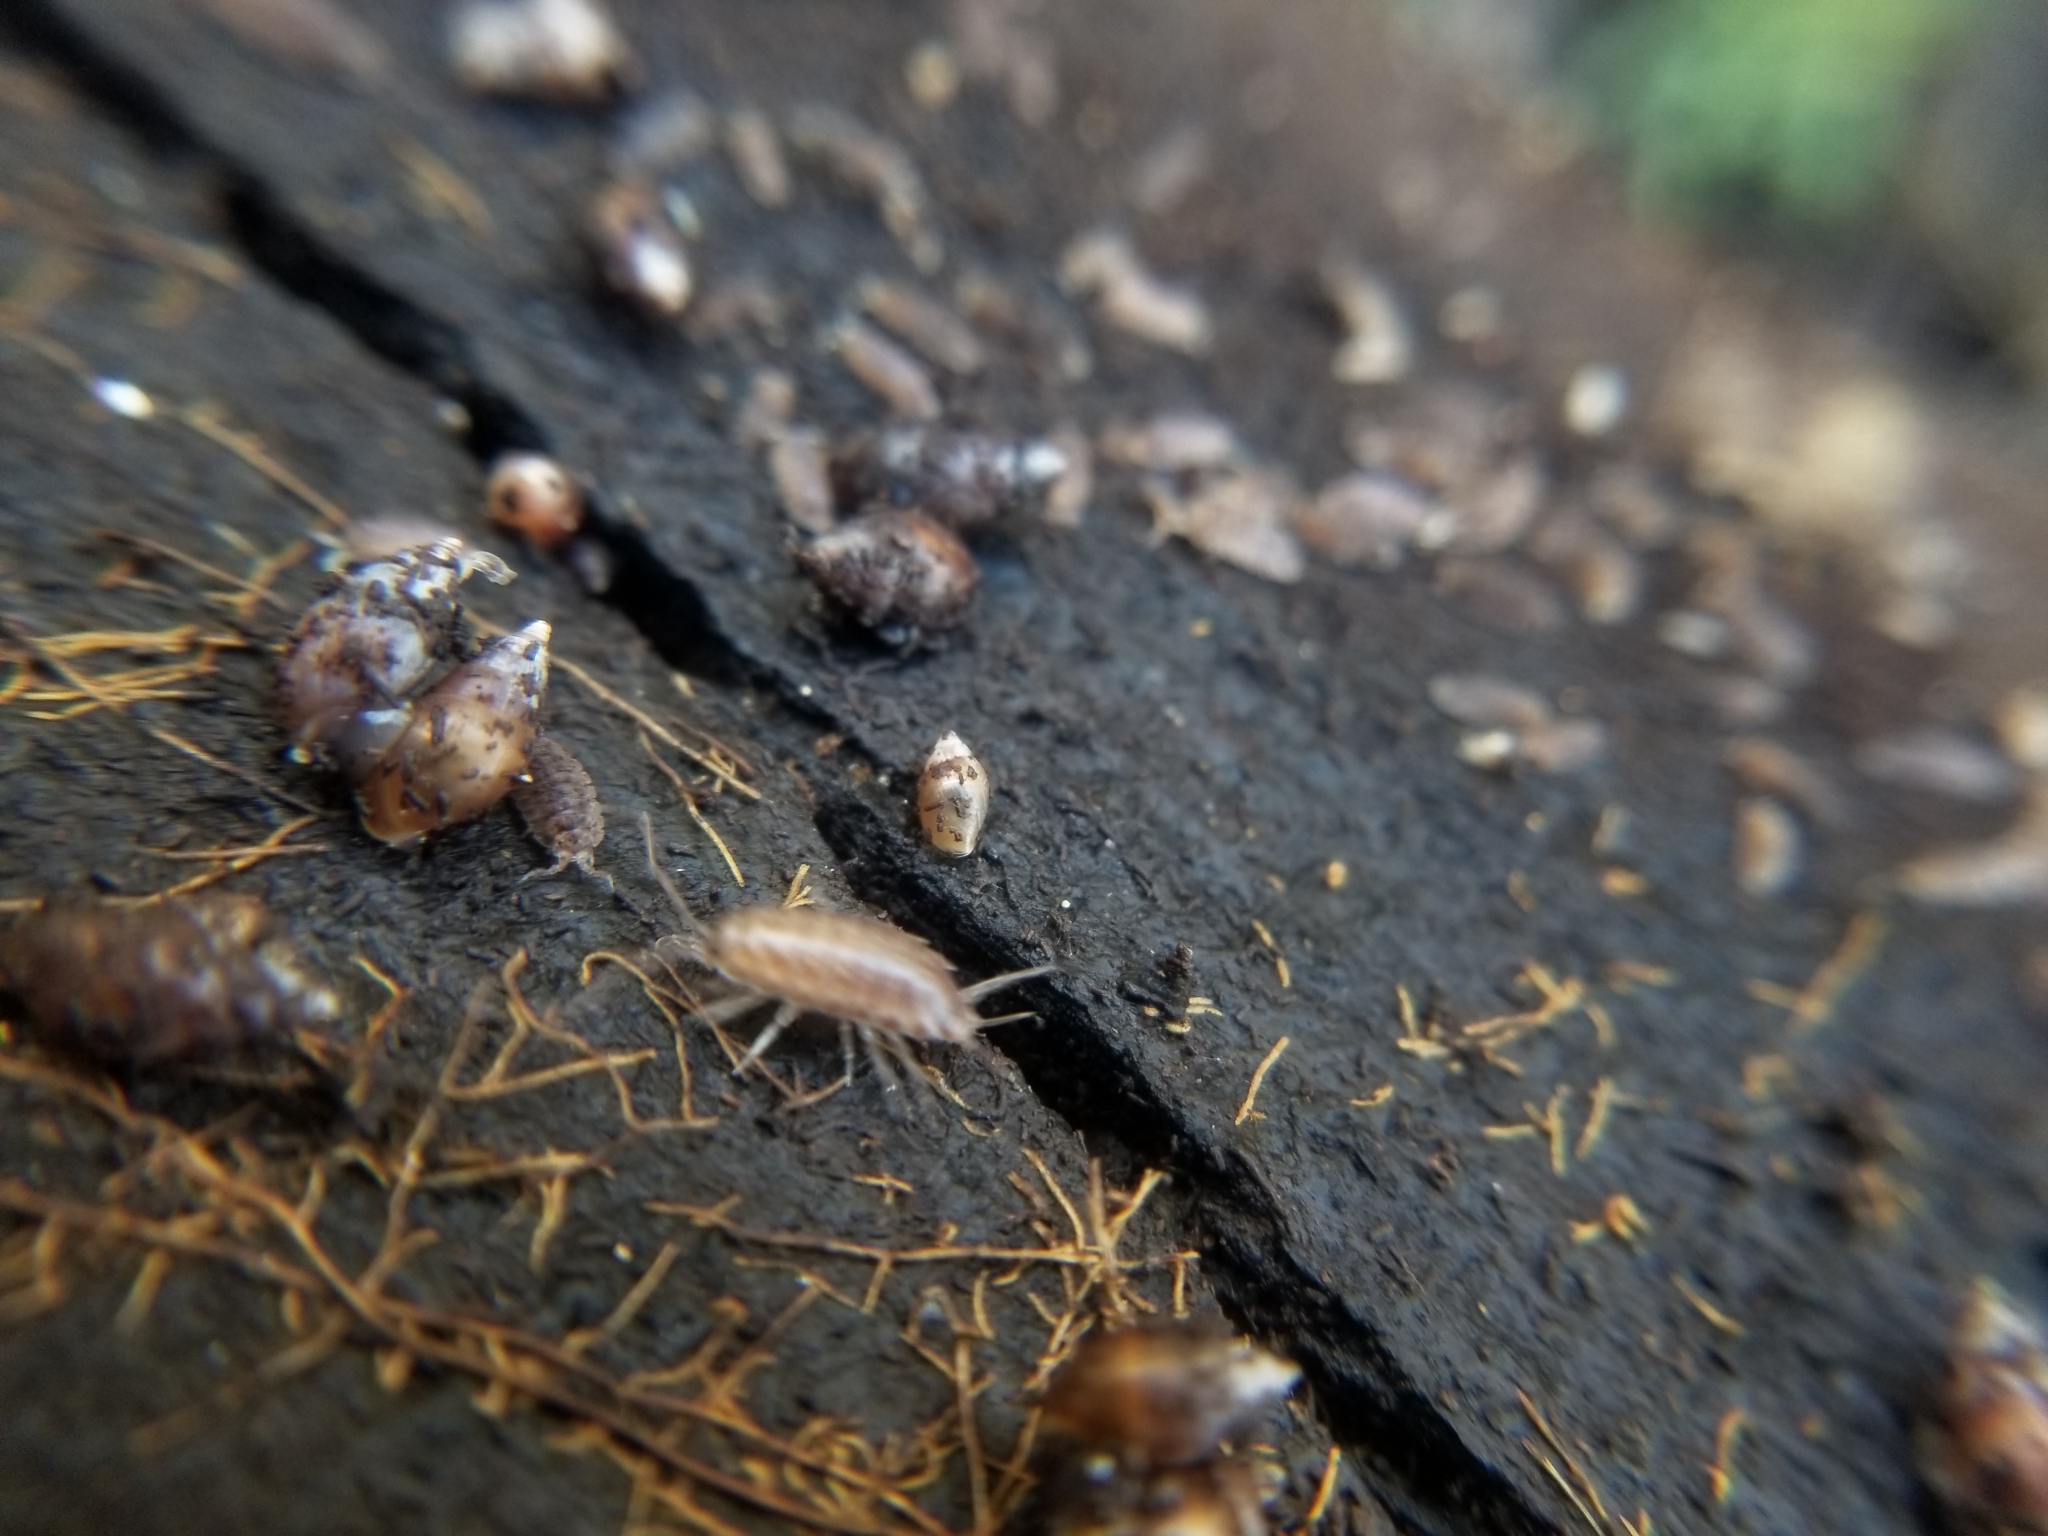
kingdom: Animalia
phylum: Arthropoda
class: Malacostraca
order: Isopoda
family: Halophilosciidae
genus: Littorophiloscia
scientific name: Littorophiloscia richardsonae
